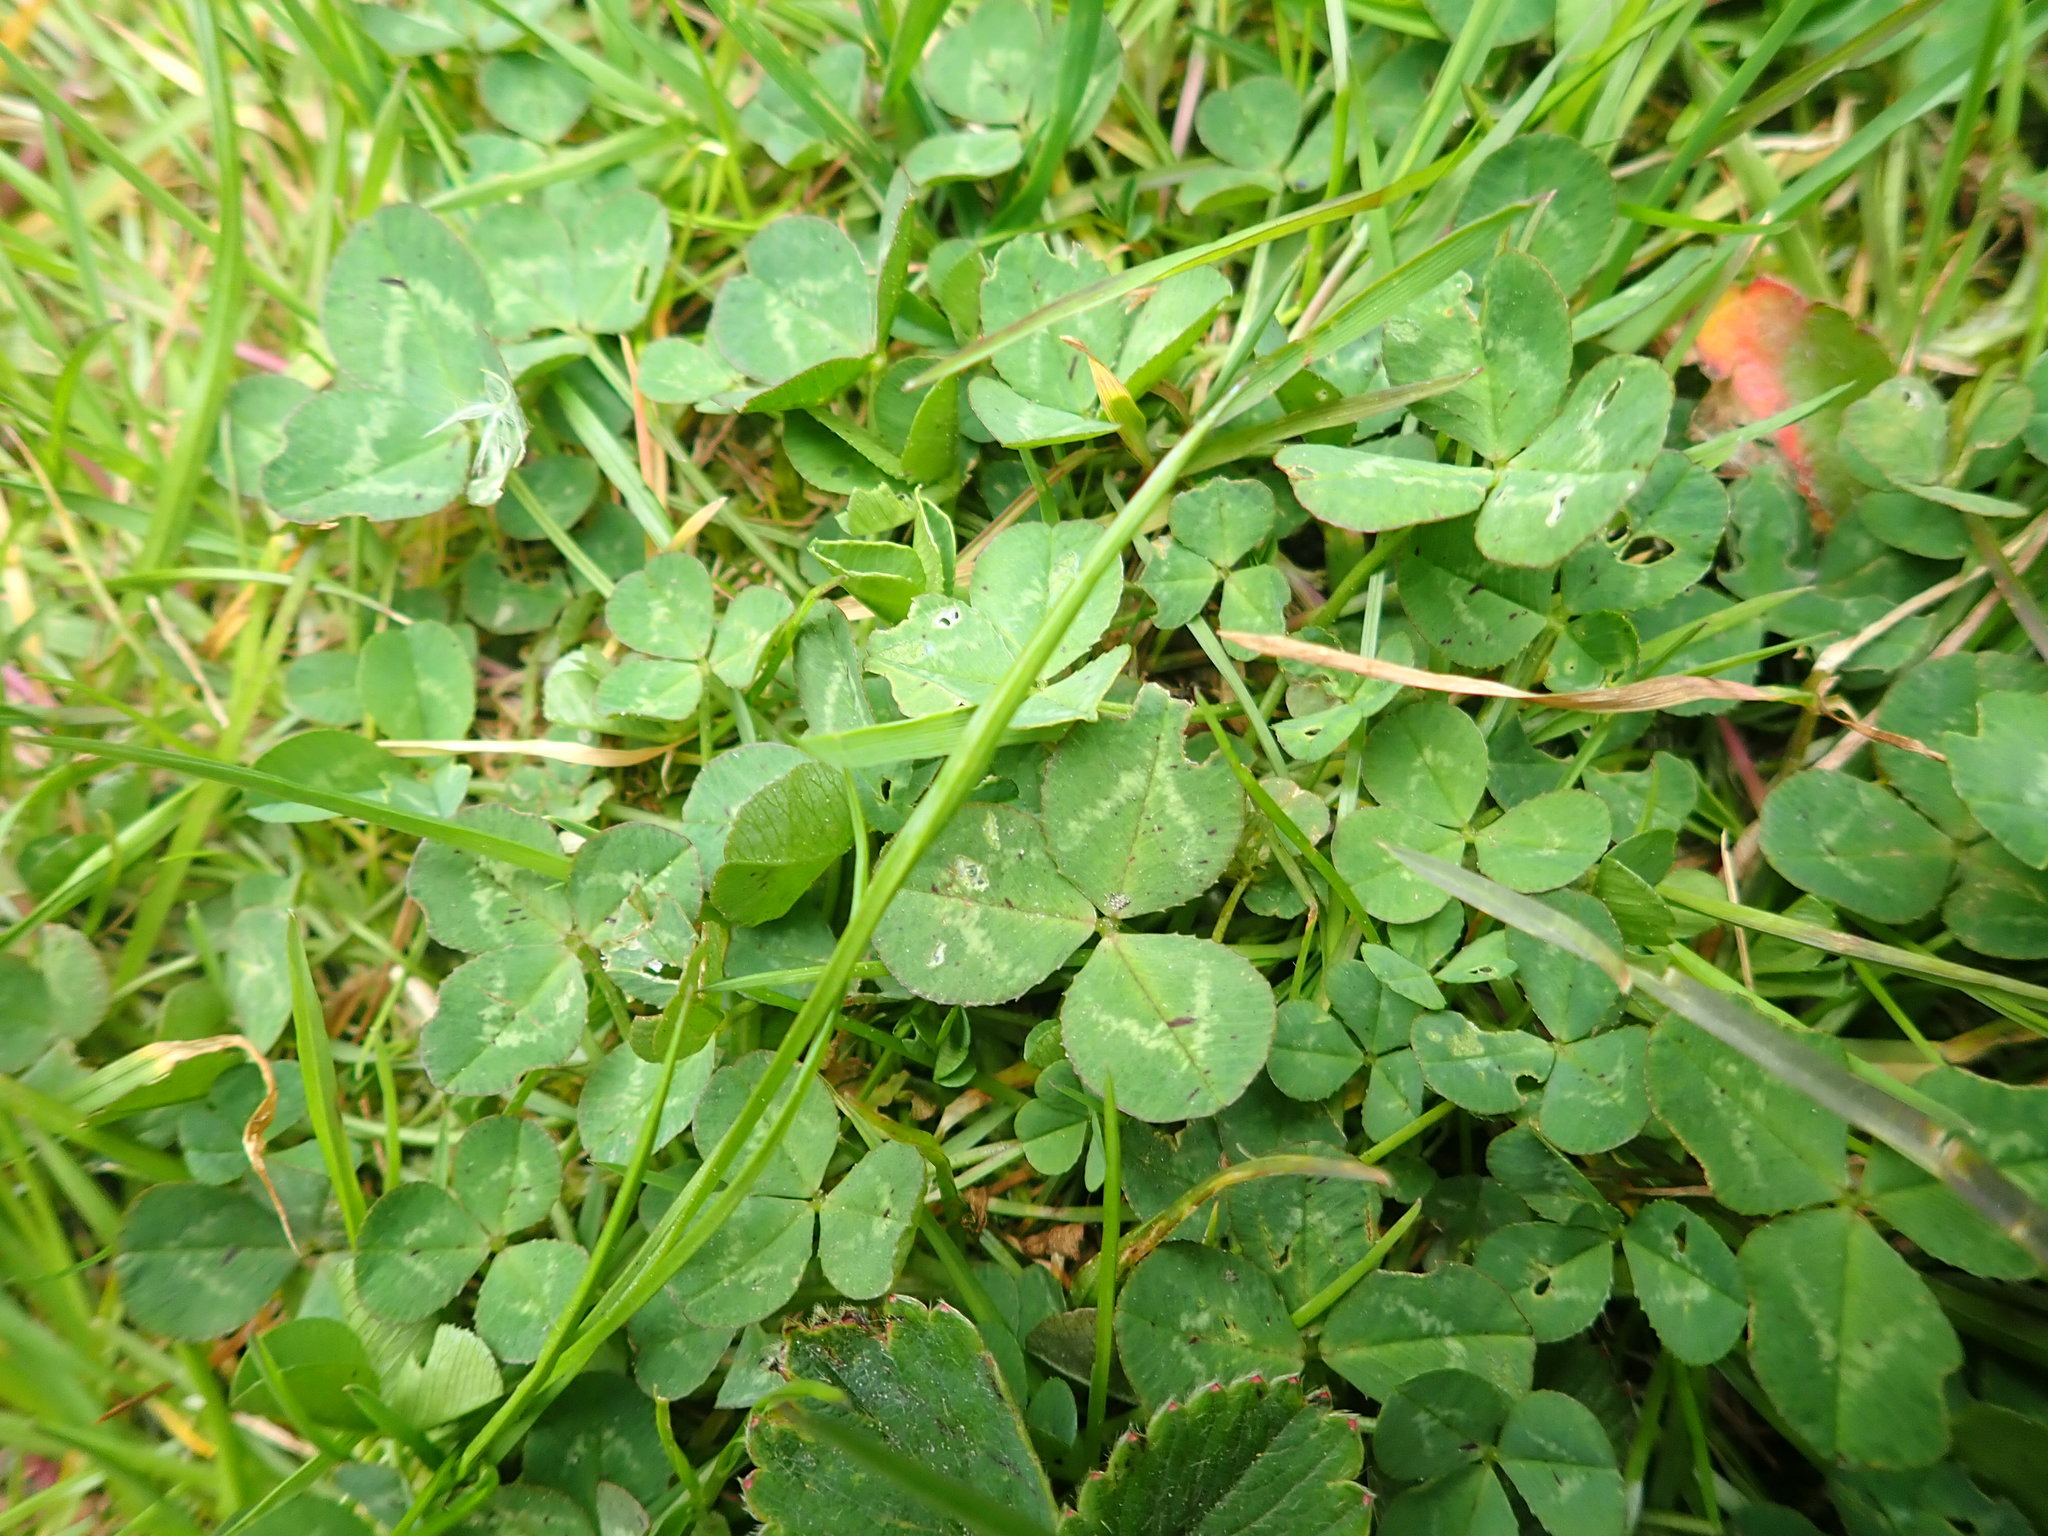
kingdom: Plantae
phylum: Tracheophyta
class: Magnoliopsida
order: Fabales
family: Fabaceae
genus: Trifolium
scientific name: Trifolium repens
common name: White clover
